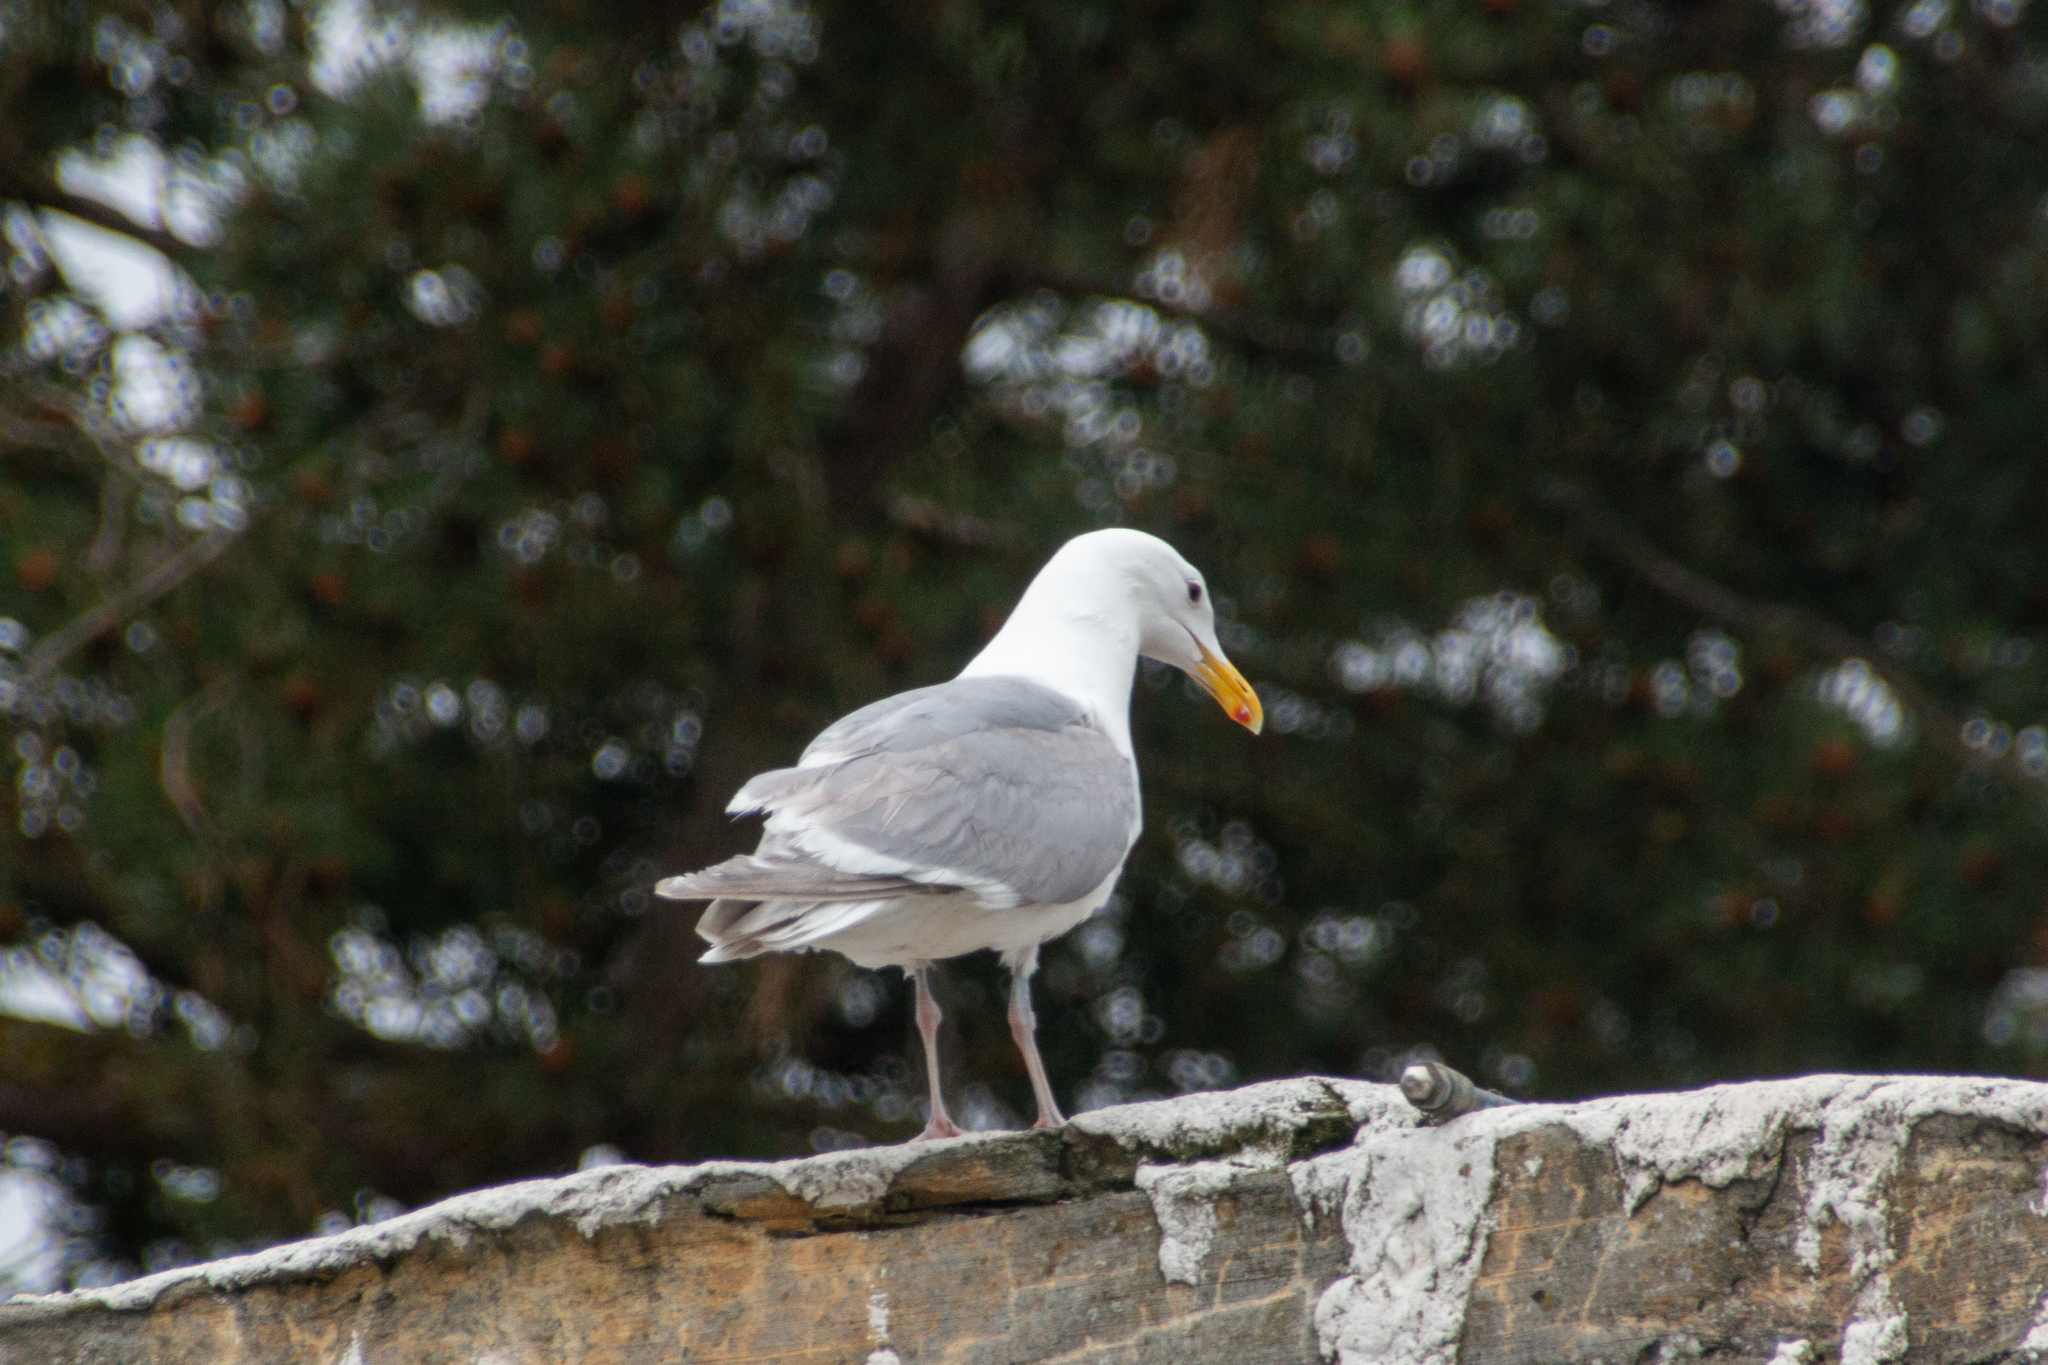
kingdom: Animalia
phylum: Chordata
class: Aves
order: Charadriiformes
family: Laridae
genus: Larus
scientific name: Larus glaucescens
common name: Glaucous-winged gull
